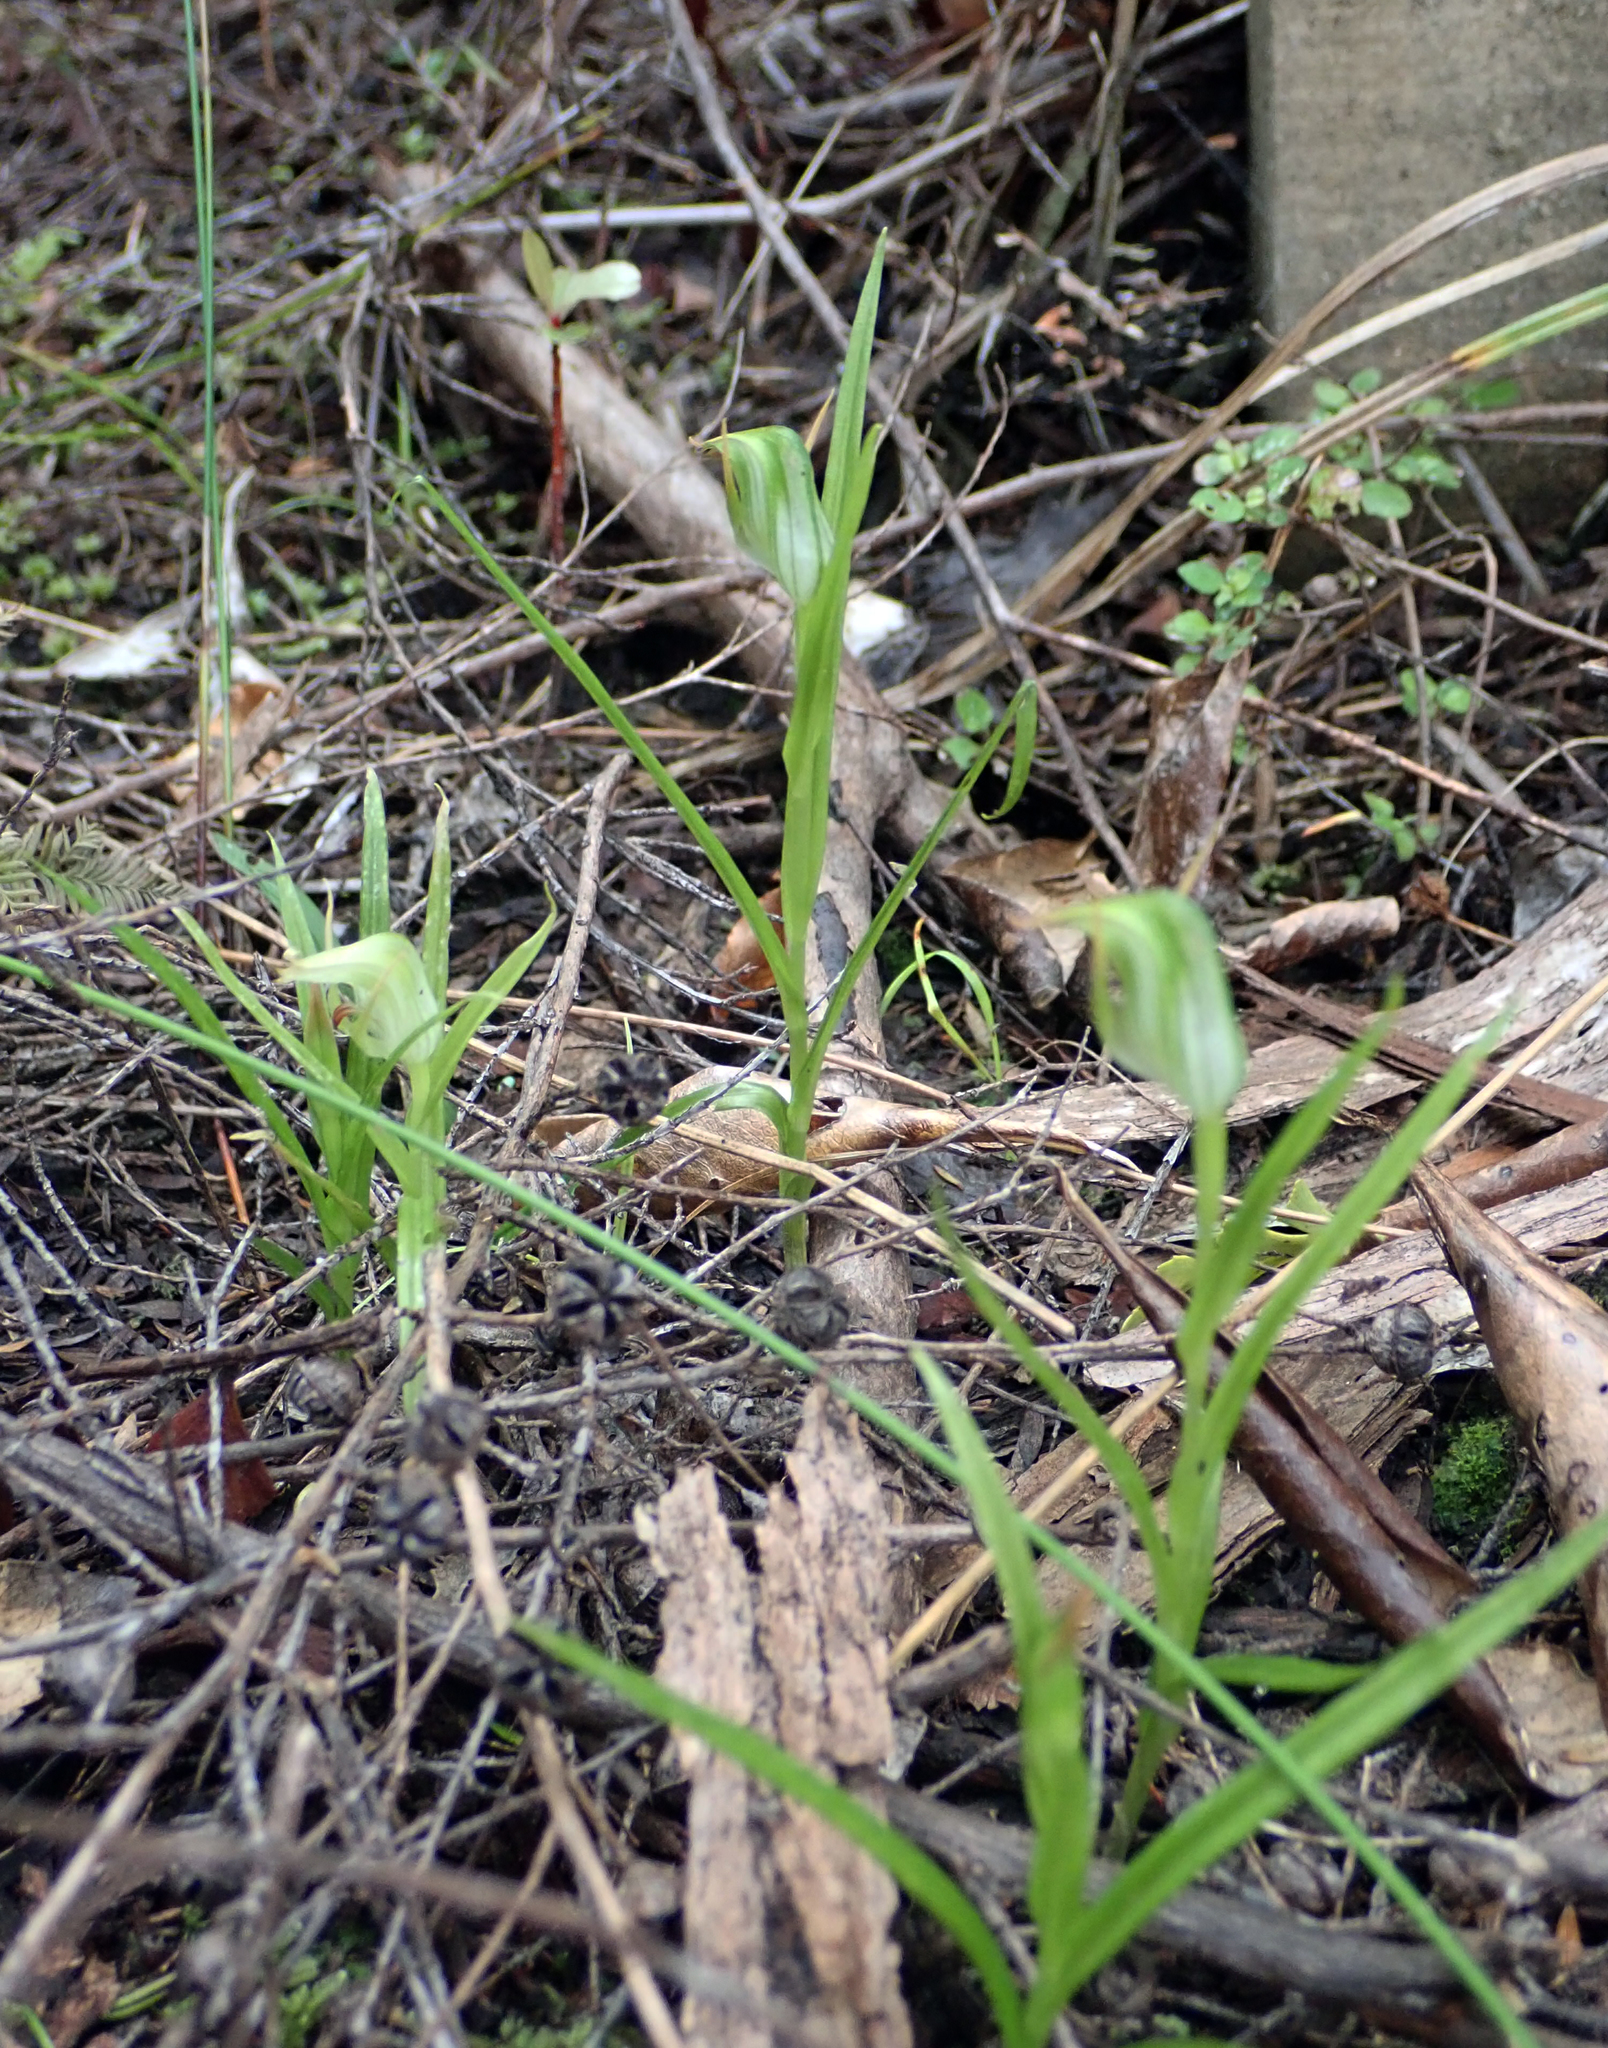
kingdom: Plantae
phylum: Tracheophyta
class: Liliopsida
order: Asparagales
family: Orchidaceae
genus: Pterostylis
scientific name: Pterostylis graminea
